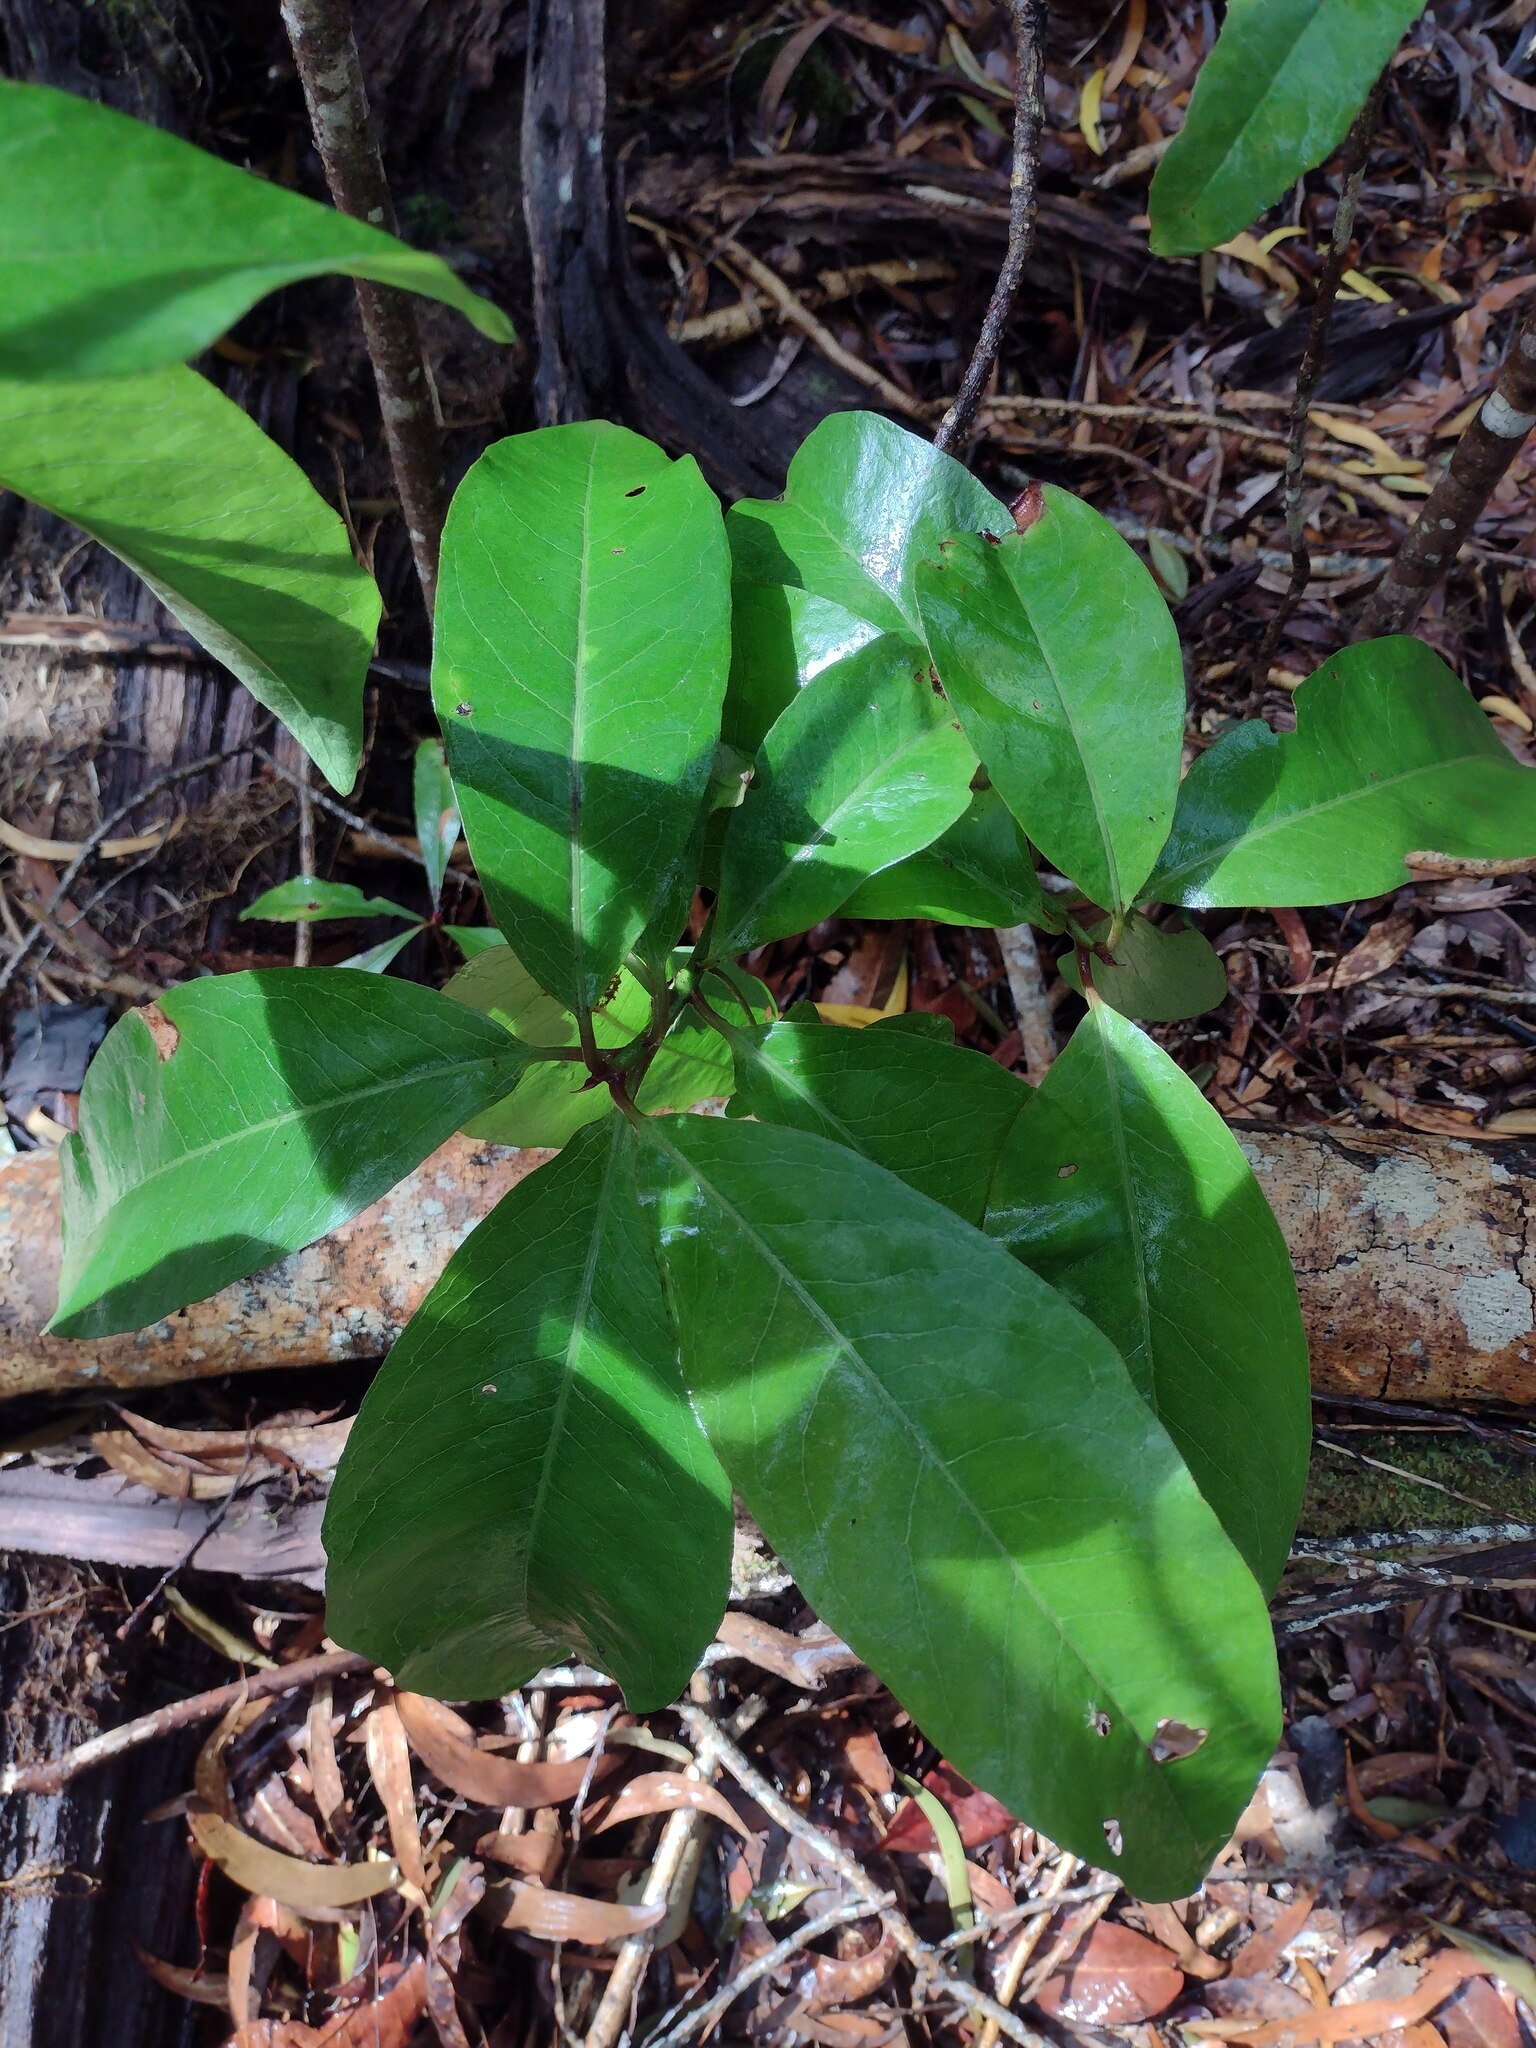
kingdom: Plantae
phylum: Tracheophyta
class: Magnoliopsida
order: Ericales
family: Primulaceae
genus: Myrsine
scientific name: Myrsine lanaiensis
